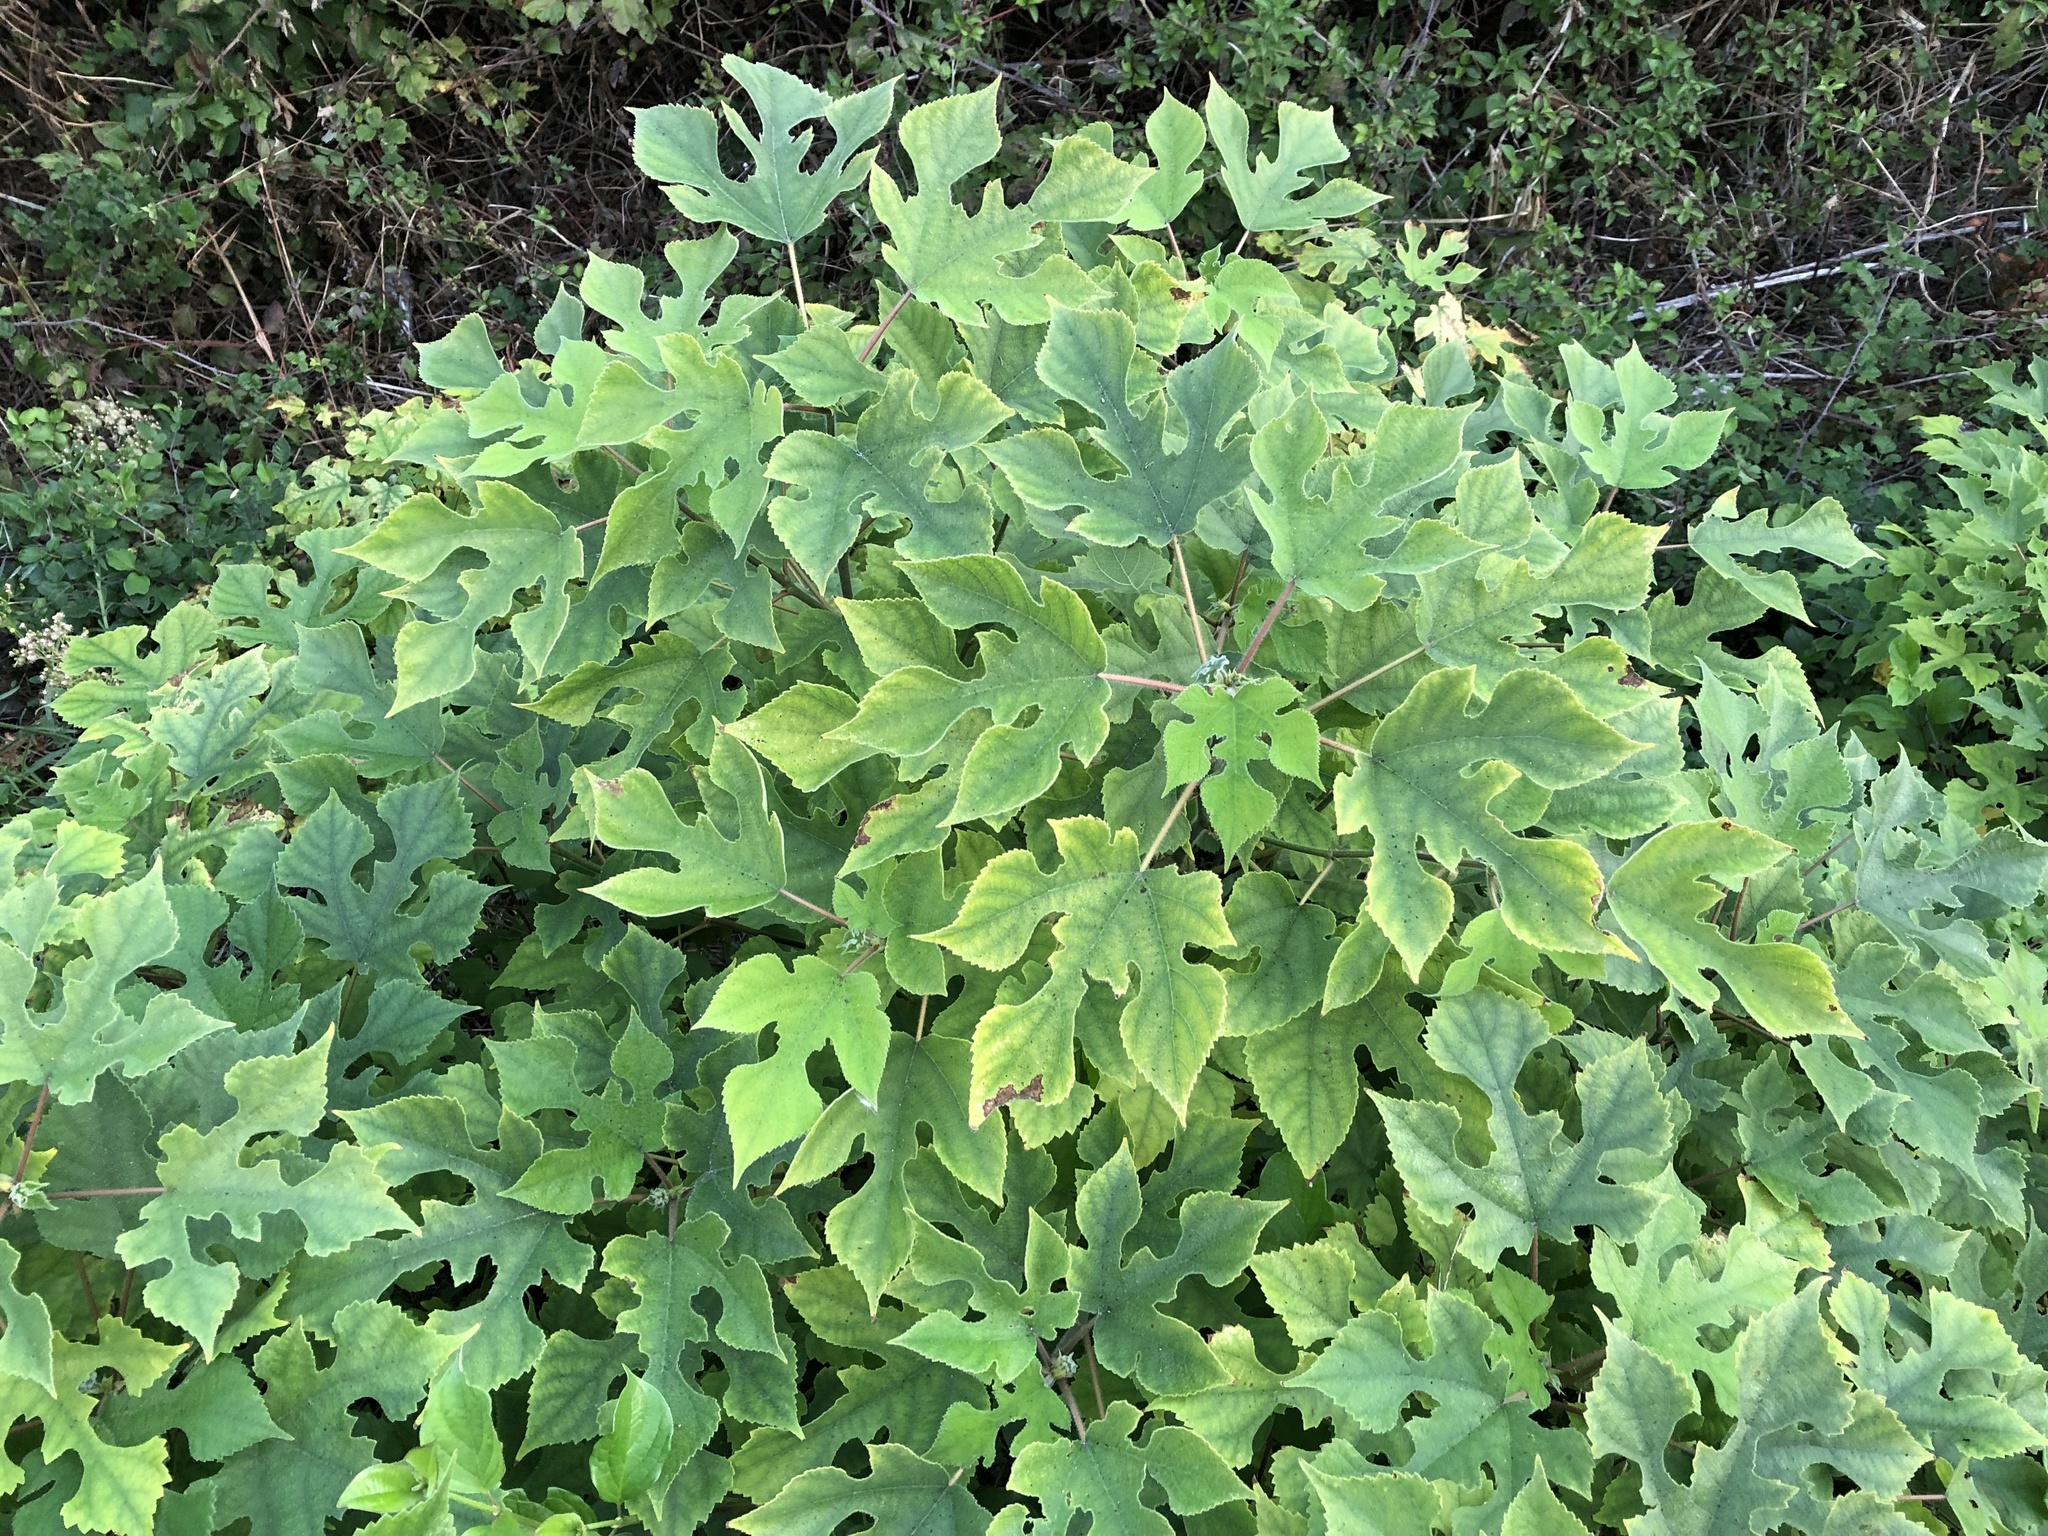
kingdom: Plantae
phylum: Tracheophyta
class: Magnoliopsida
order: Rosales
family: Moraceae
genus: Broussonetia
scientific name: Broussonetia papyrifera
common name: Paper mulberry
